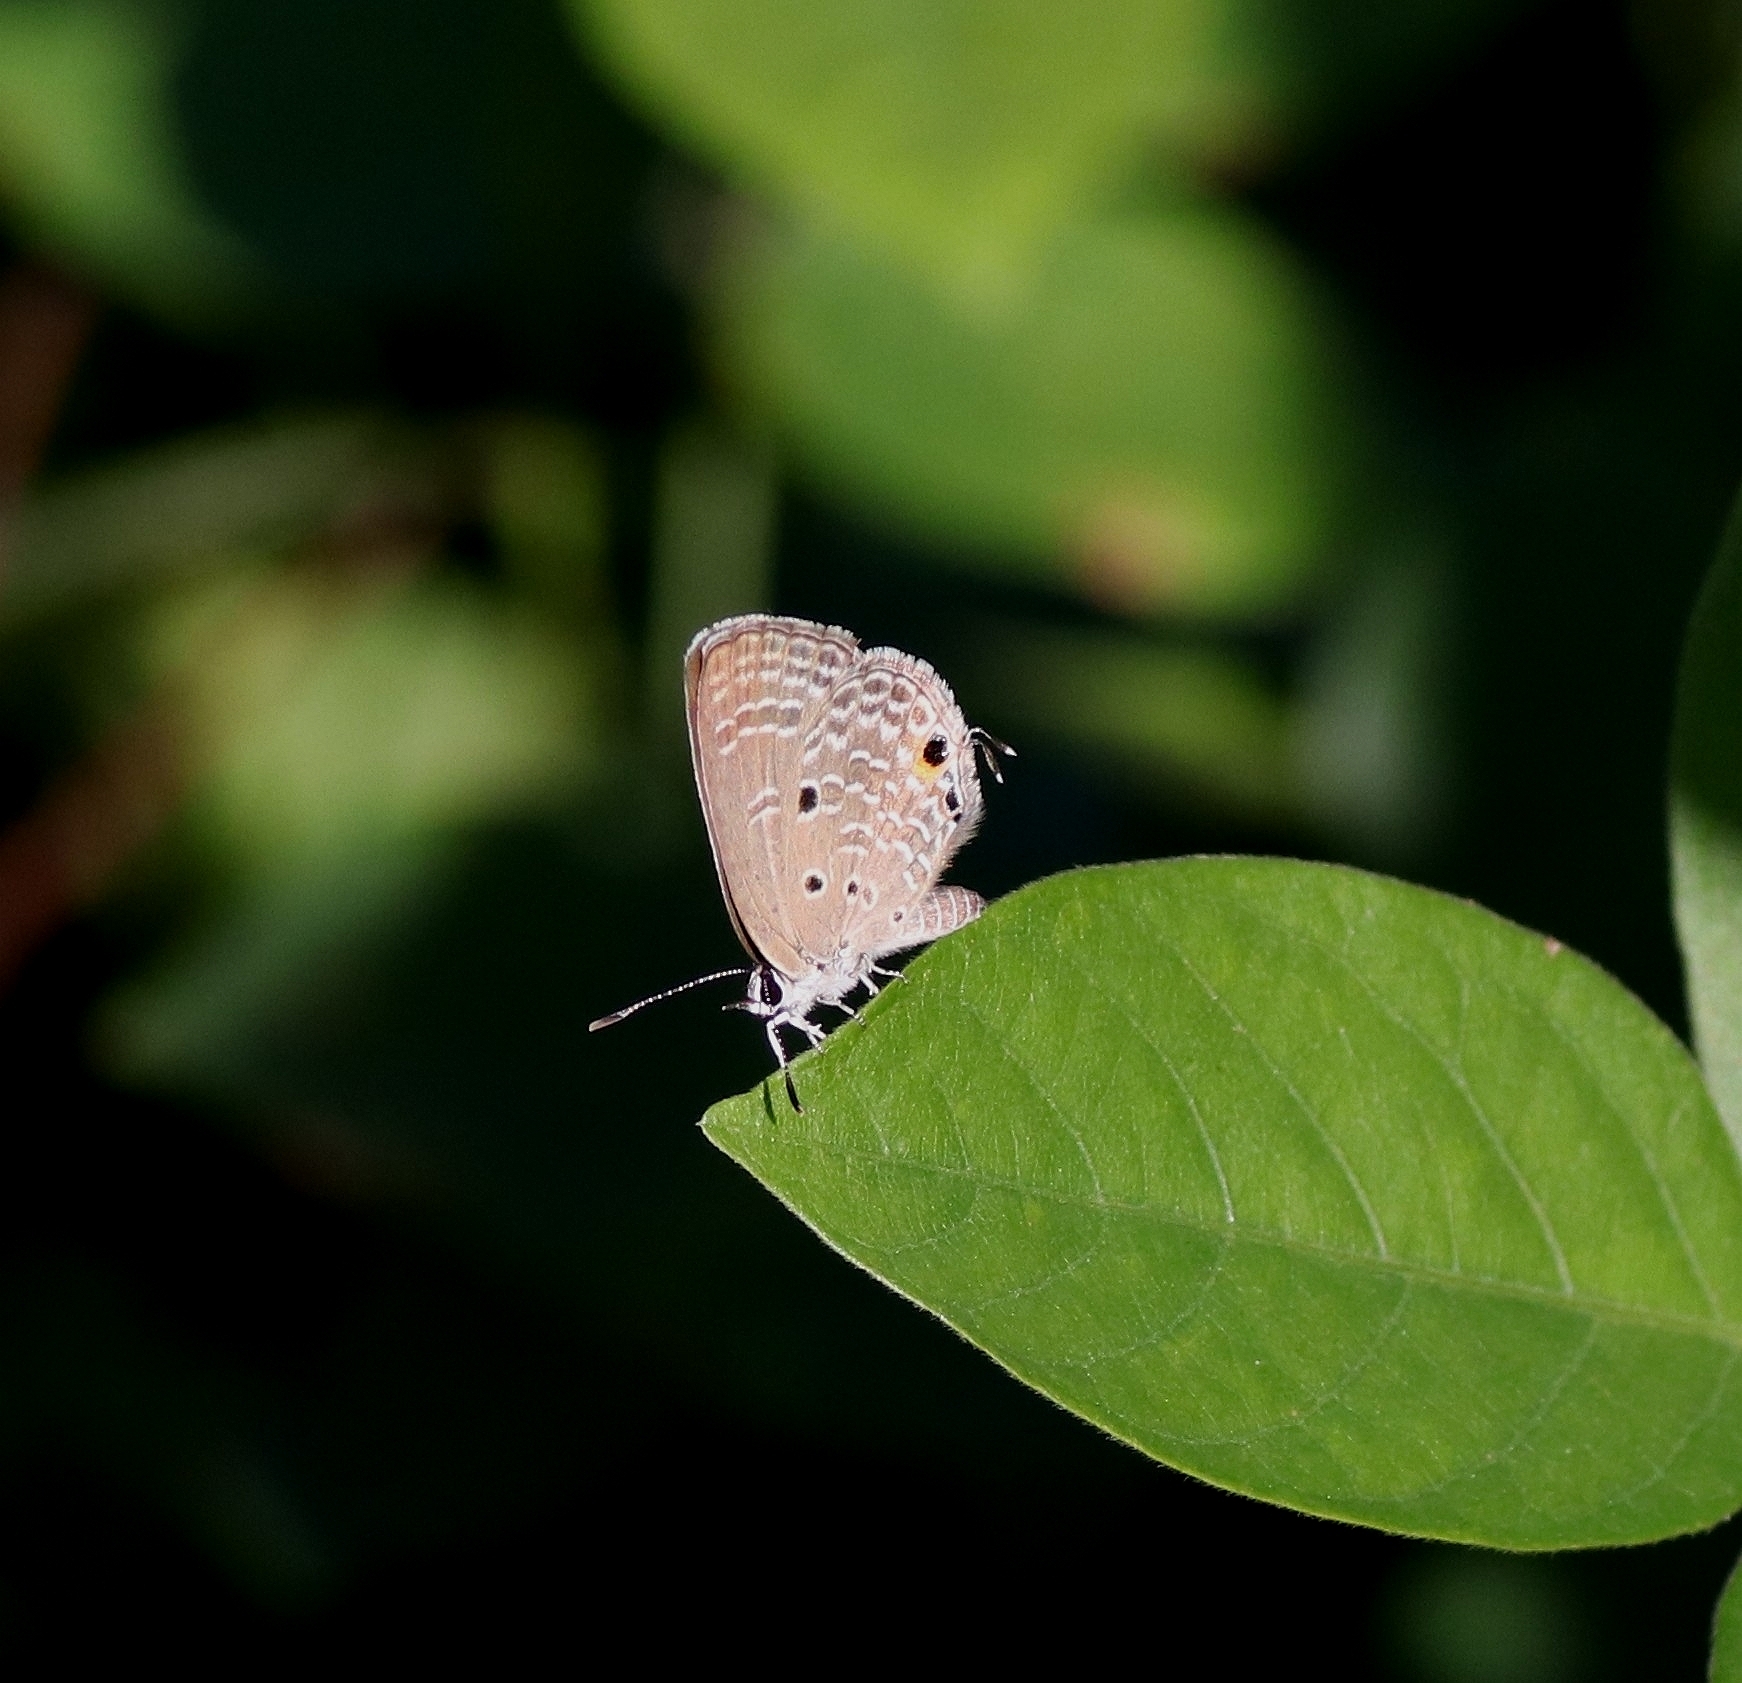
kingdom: Animalia
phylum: Arthropoda
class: Insecta
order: Lepidoptera
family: Lycaenidae
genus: Luthrodes
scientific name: Luthrodes pandava
